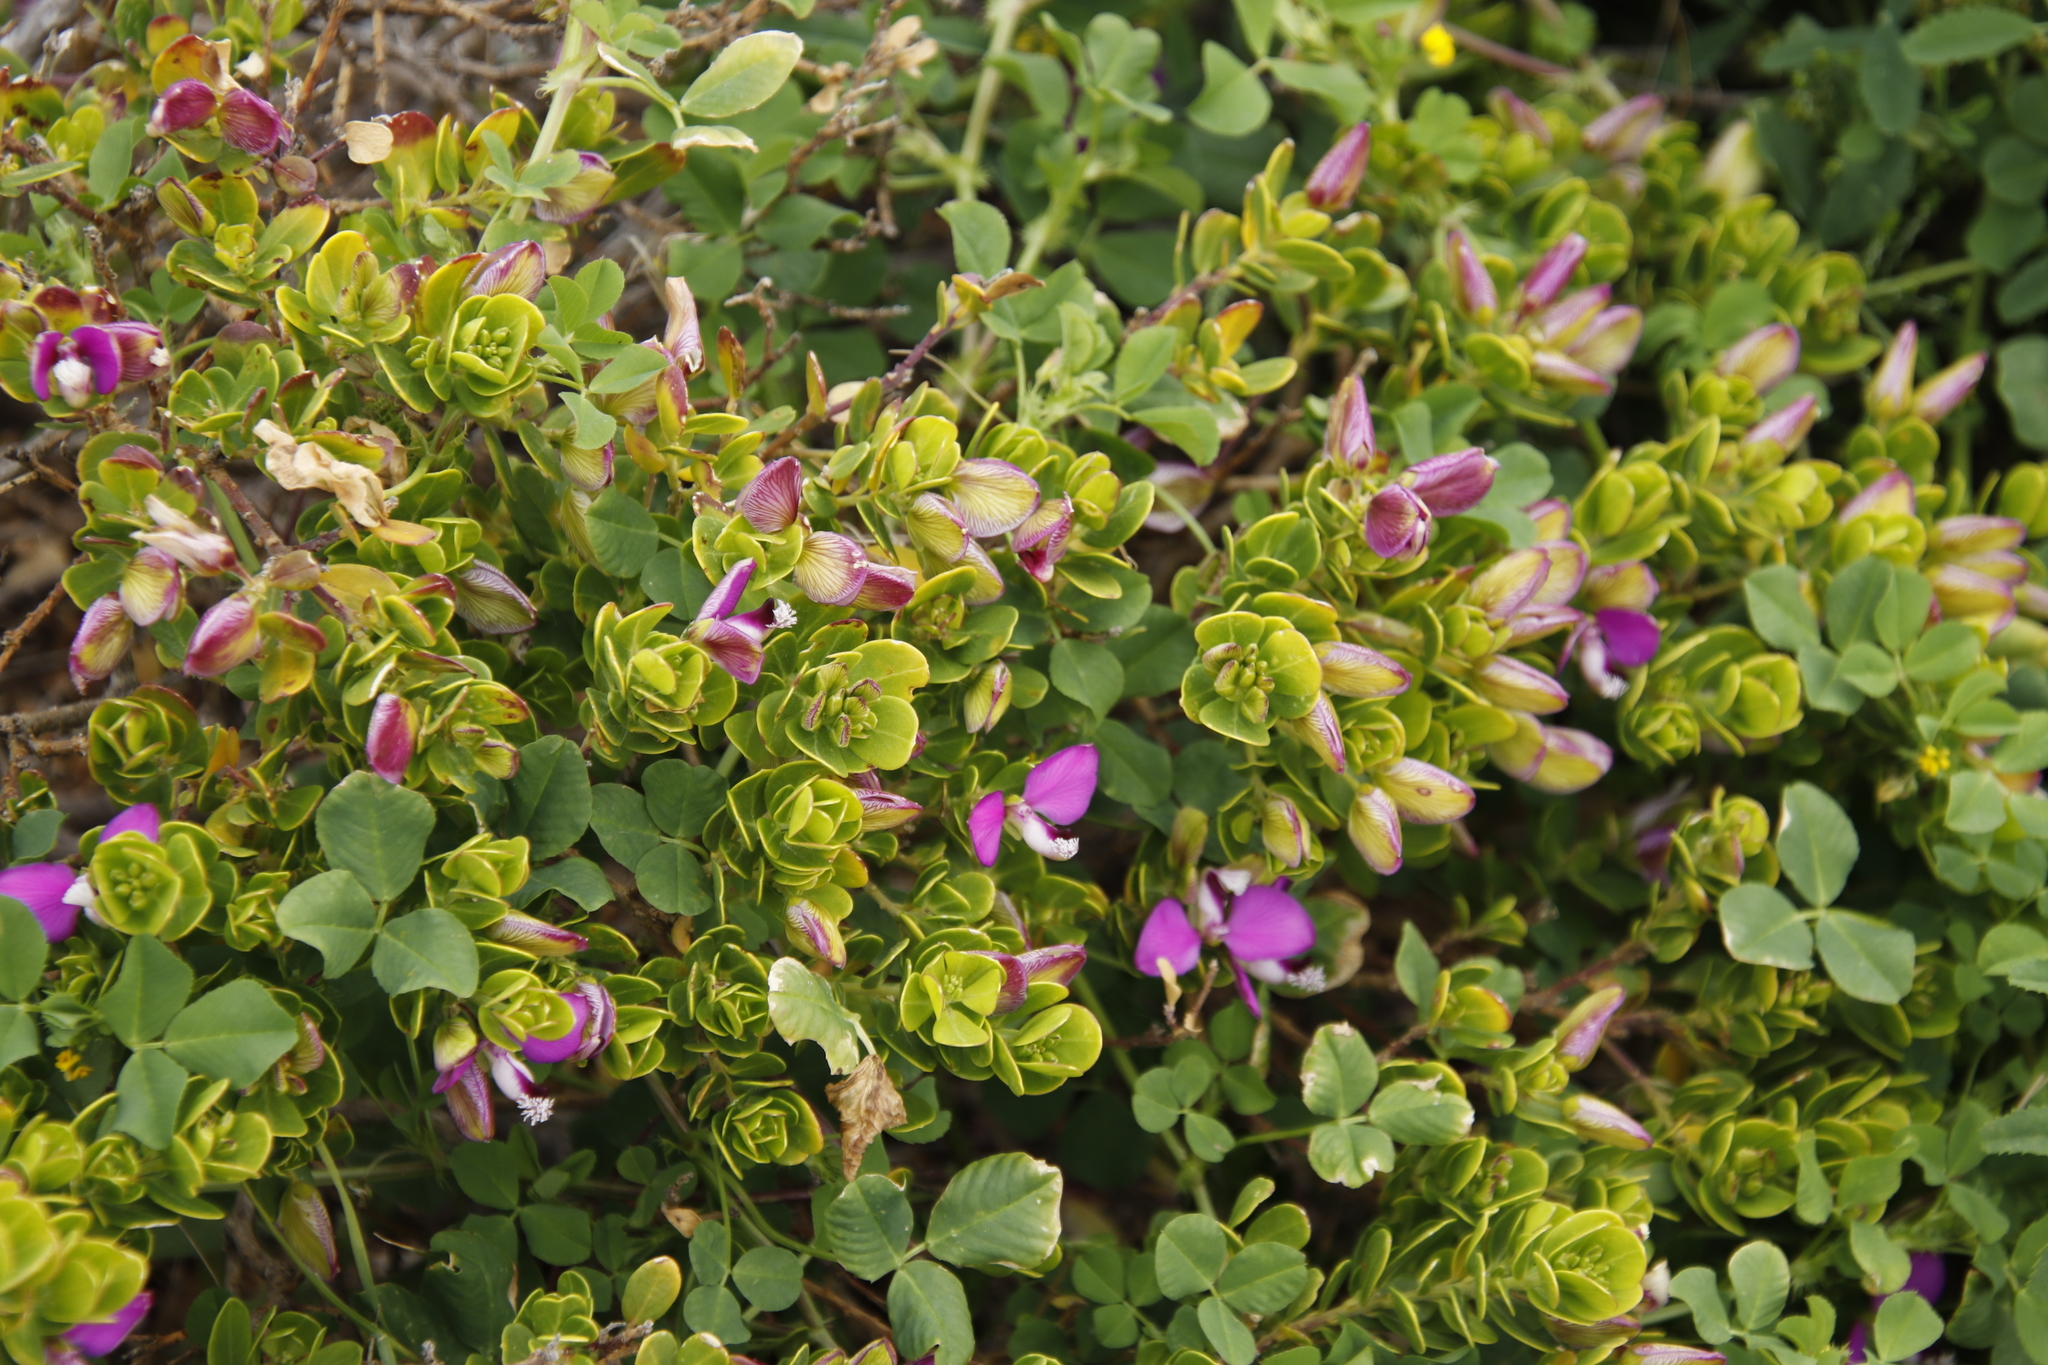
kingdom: Plantae
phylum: Tracheophyta
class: Magnoliopsida
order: Fabales
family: Polygalaceae
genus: Polygala
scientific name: Polygala myrtifolia
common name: Myrtle-leaf milkwort
